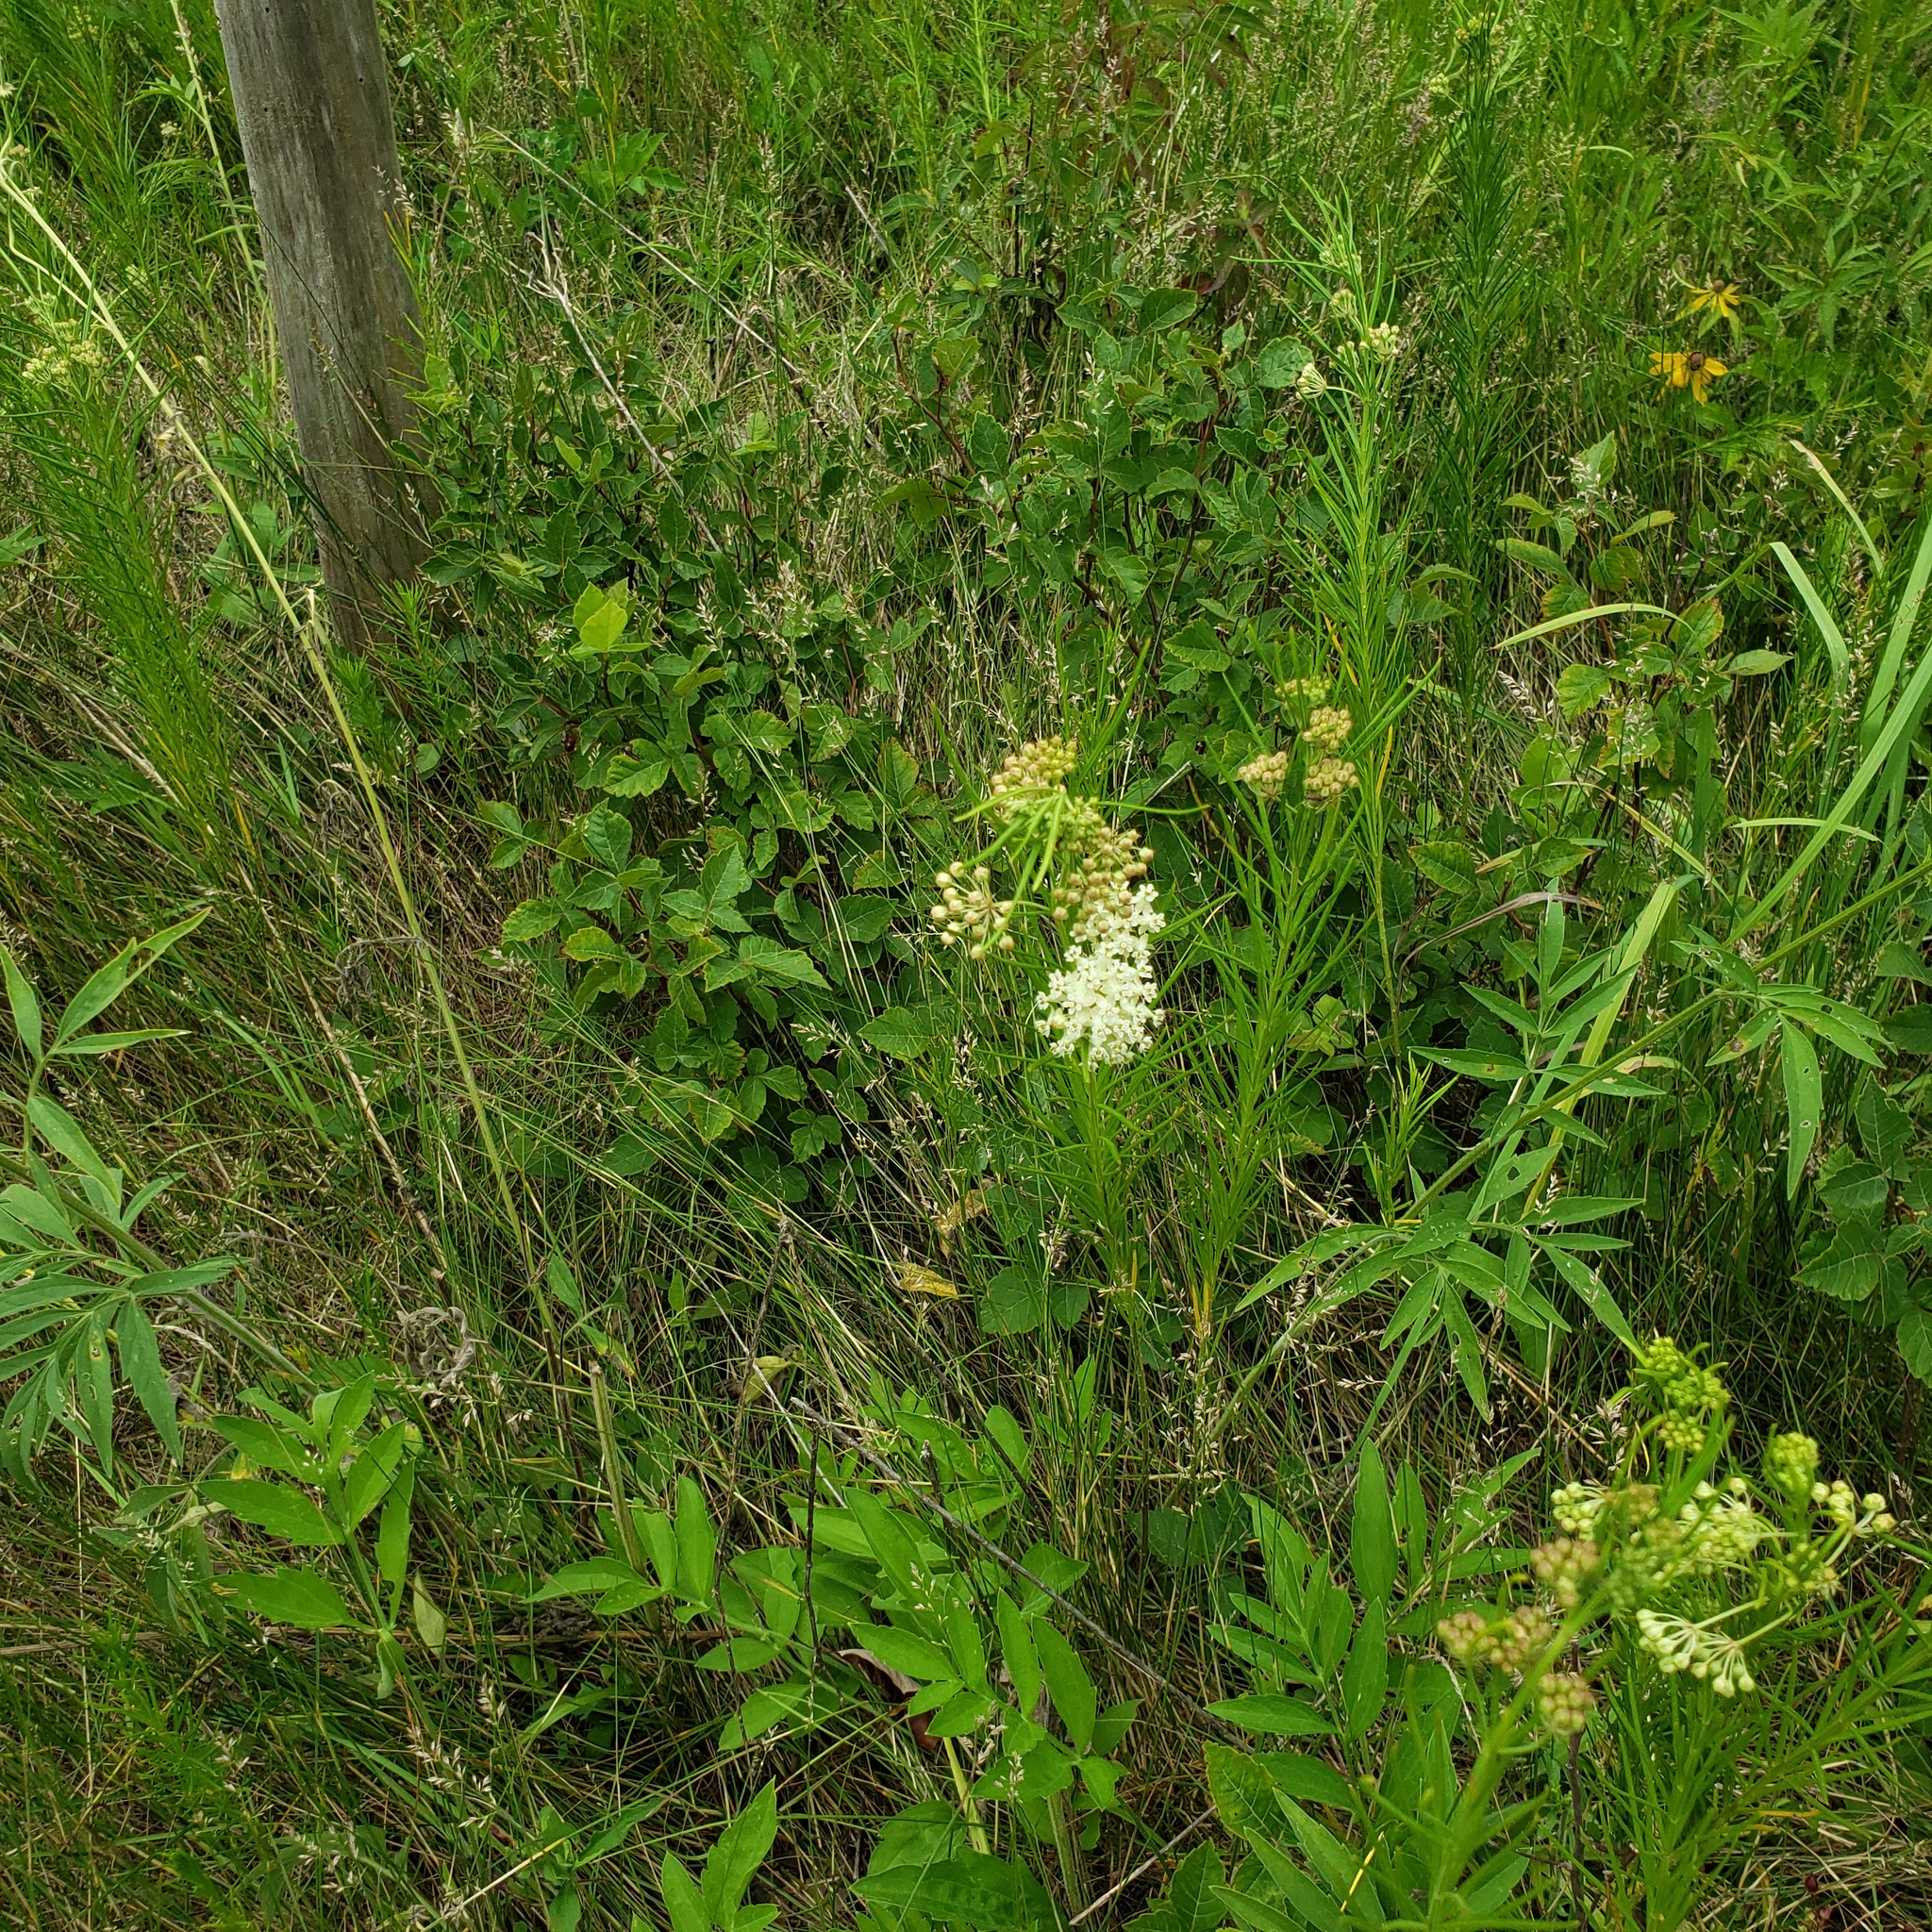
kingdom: Plantae
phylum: Tracheophyta
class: Magnoliopsida
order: Gentianales
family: Apocynaceae
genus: Asclepias
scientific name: Asclepias verticillata
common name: Eastern whorled milkweed
